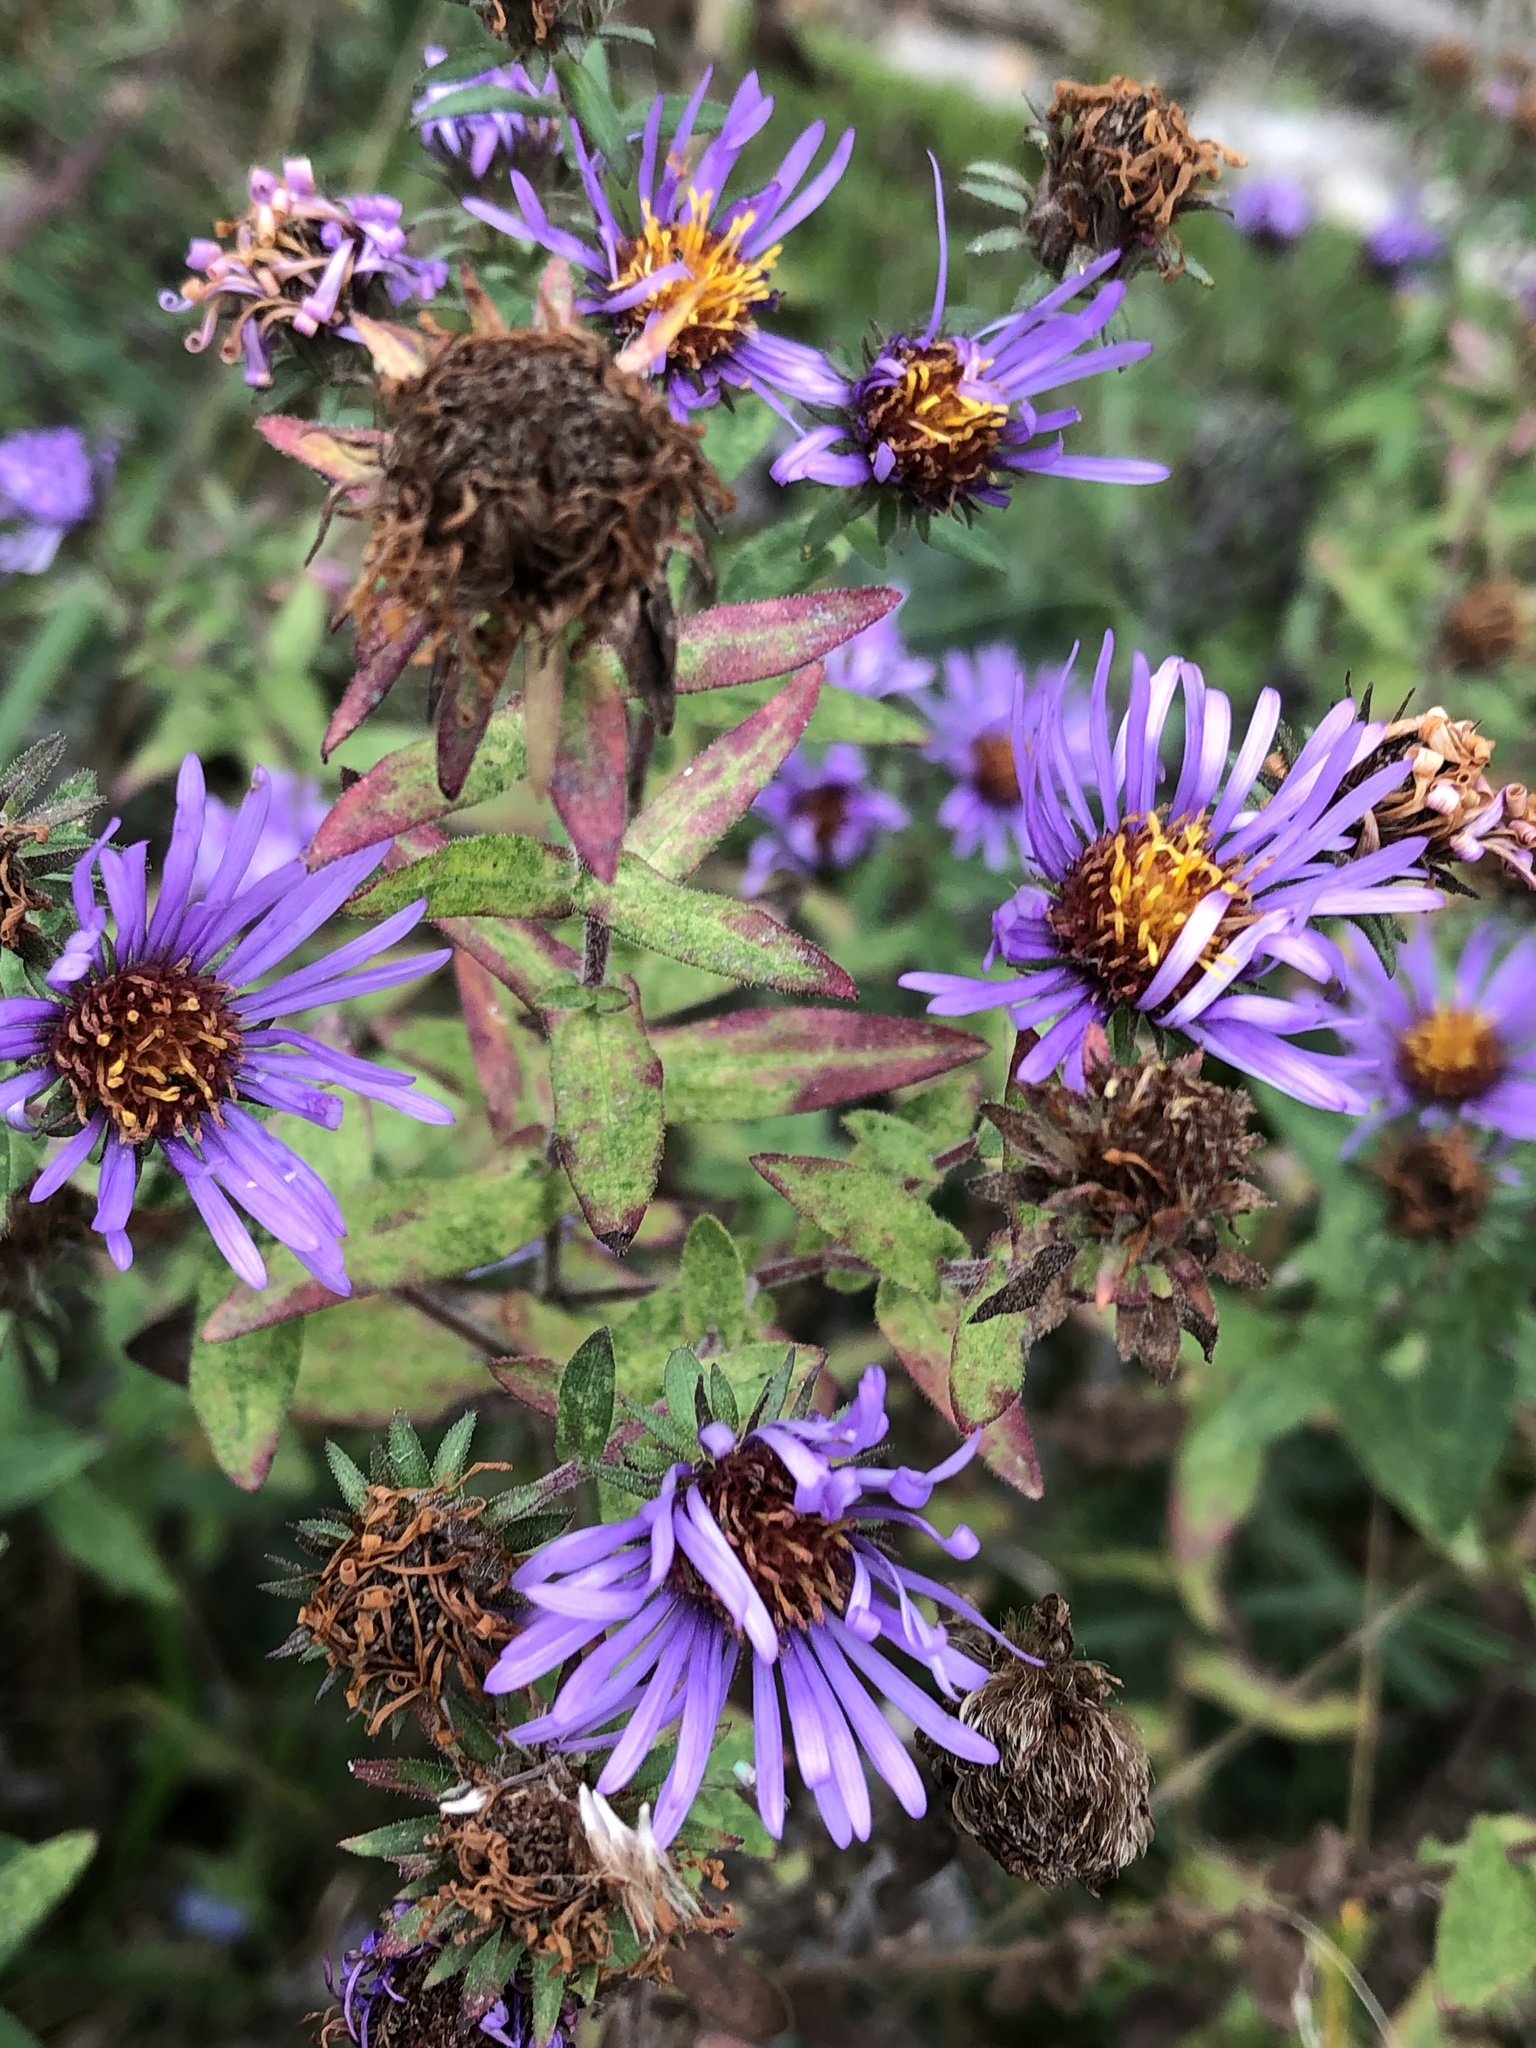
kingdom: Plantae
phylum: Tracheophyta
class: Magnoliopsida
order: Asterales
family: Asteraceae
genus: Symphyotrichum
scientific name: Symphyotrichum novae-angliae
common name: Michaelmas daisy
